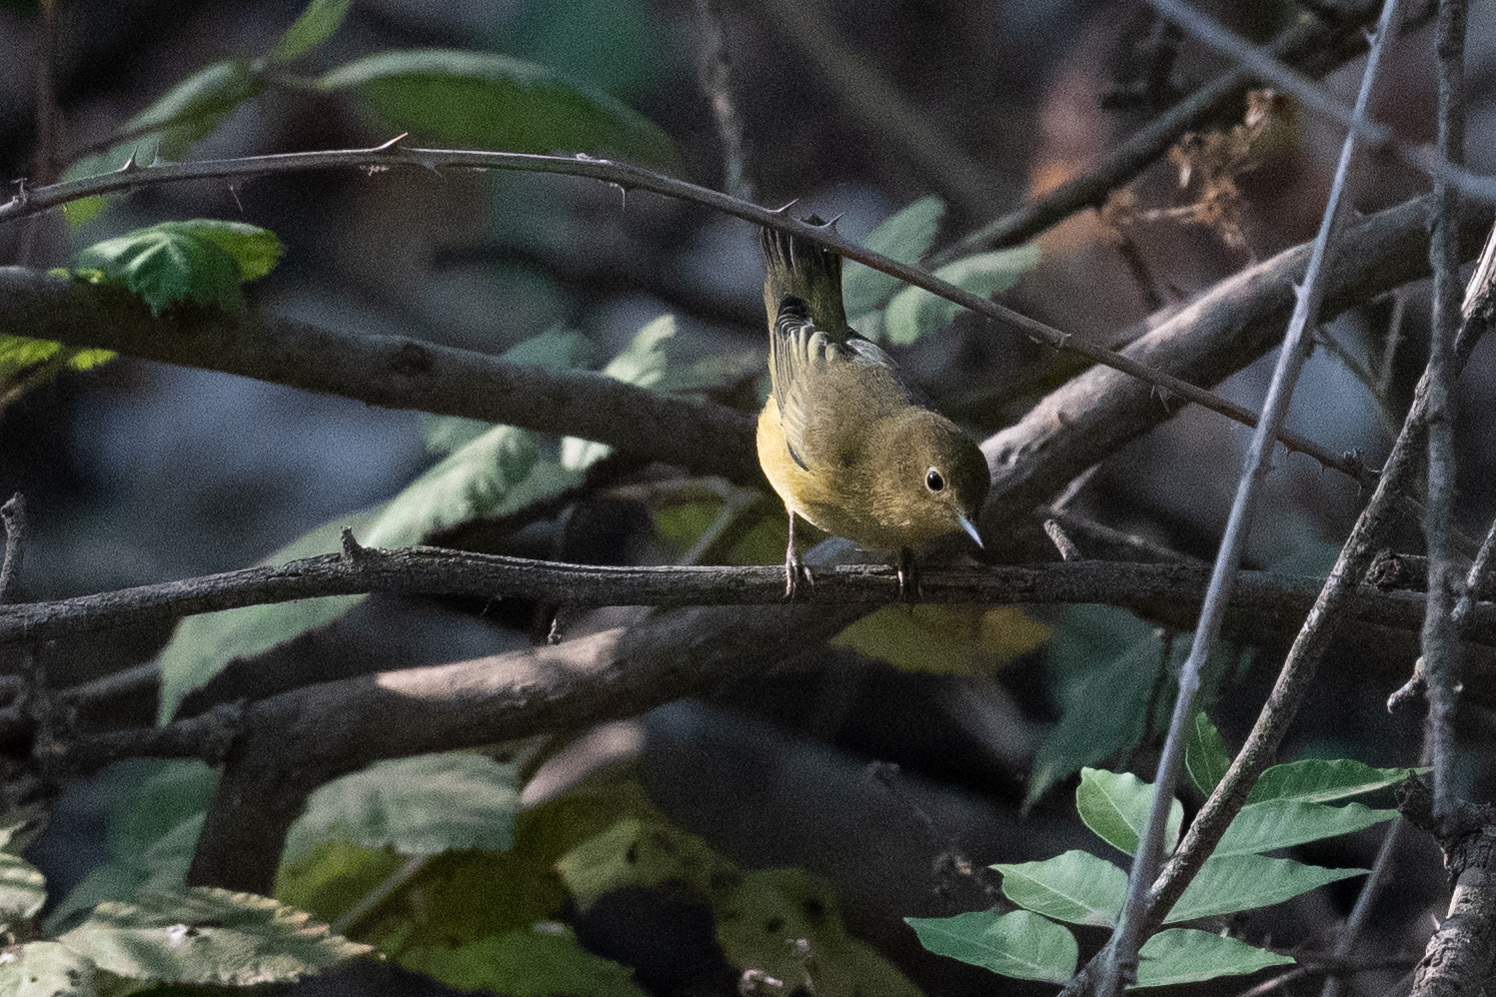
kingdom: Animalia
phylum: Chordata
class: Aves
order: Passeriformes
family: Parulidae
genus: Setophaga
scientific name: Setophaga petechia
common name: Yellow warbler
